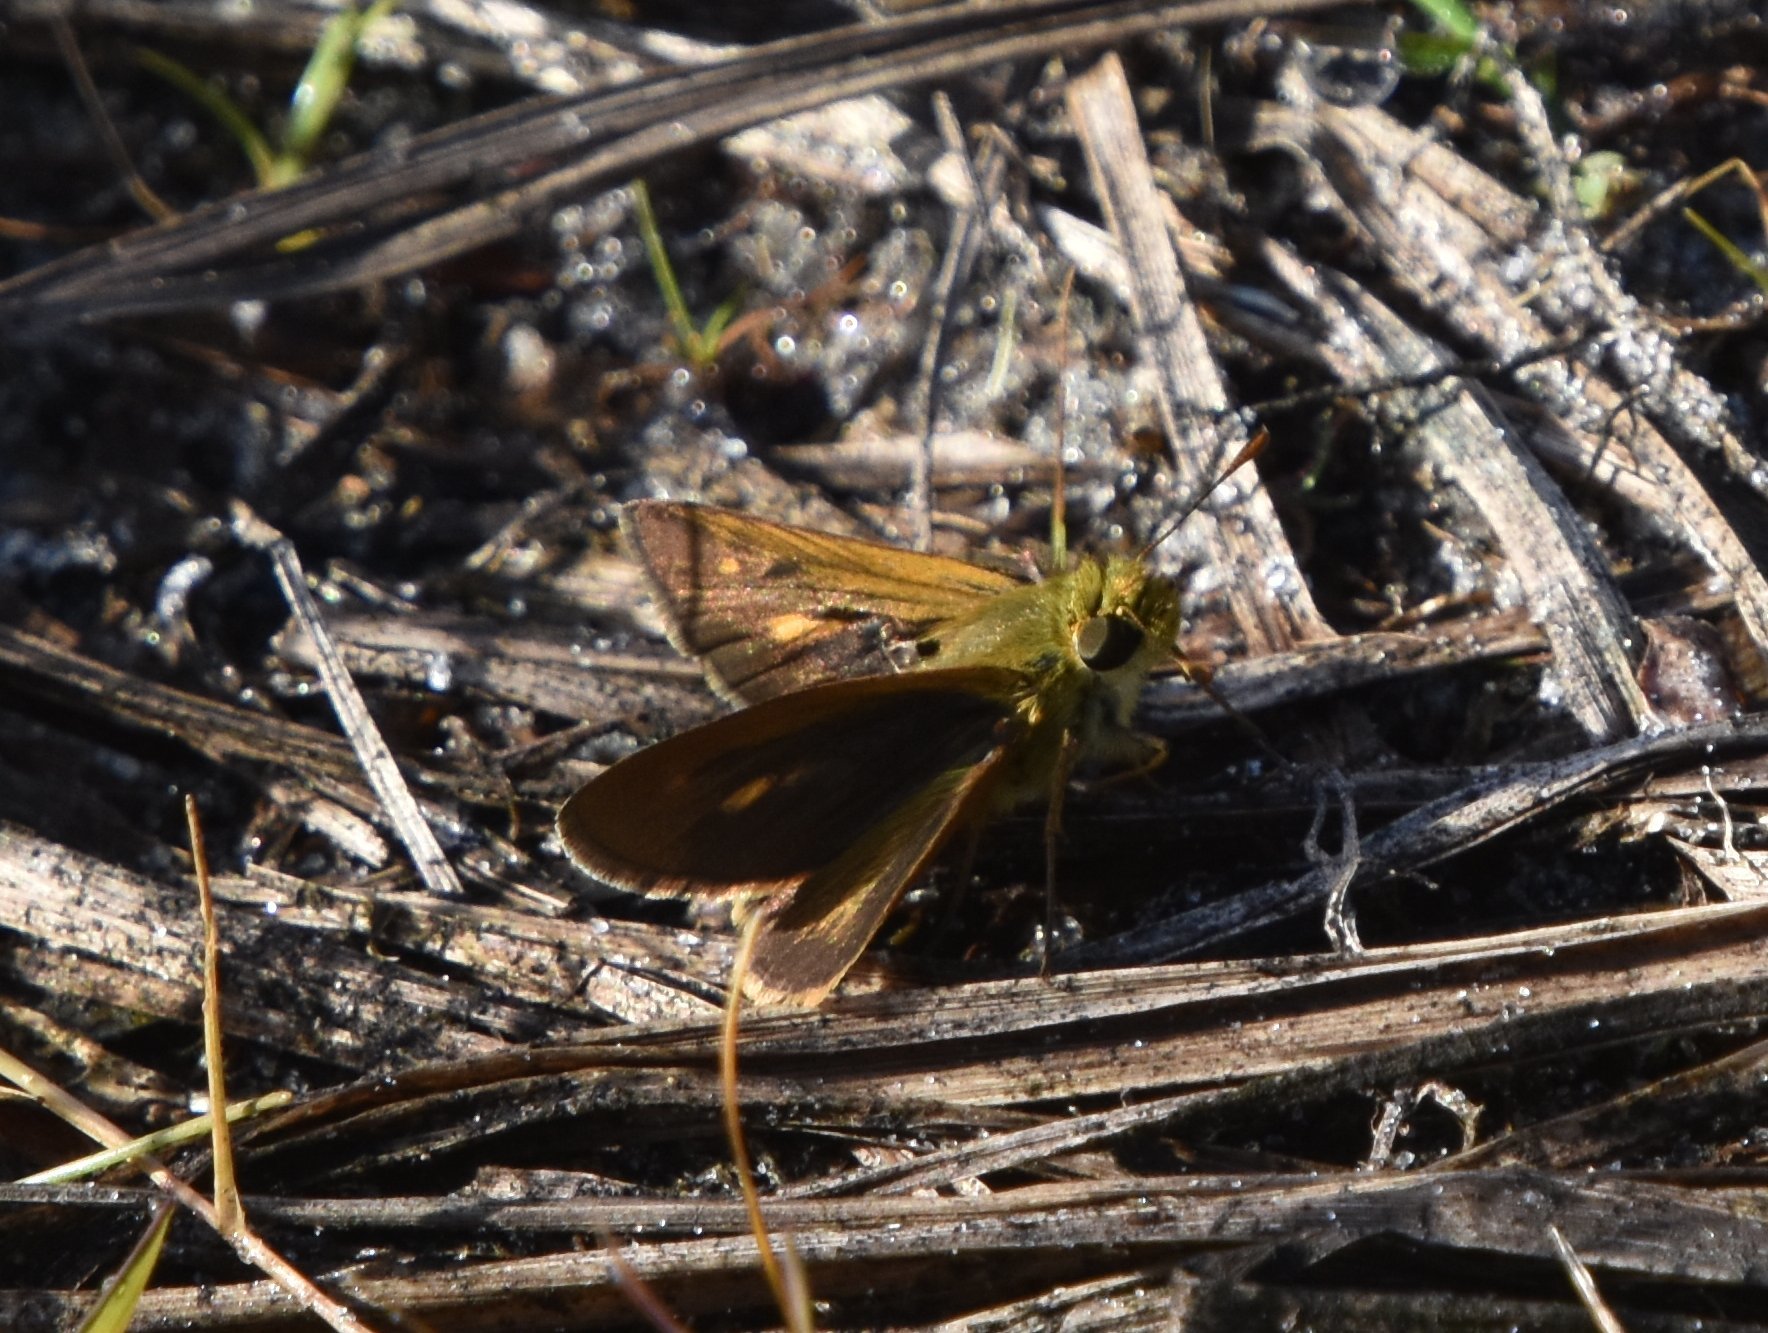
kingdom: Animalia
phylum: Arthropoda
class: Insecta
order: Lepidoptera
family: Hesperiidae
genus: Polites
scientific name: Polites otho
